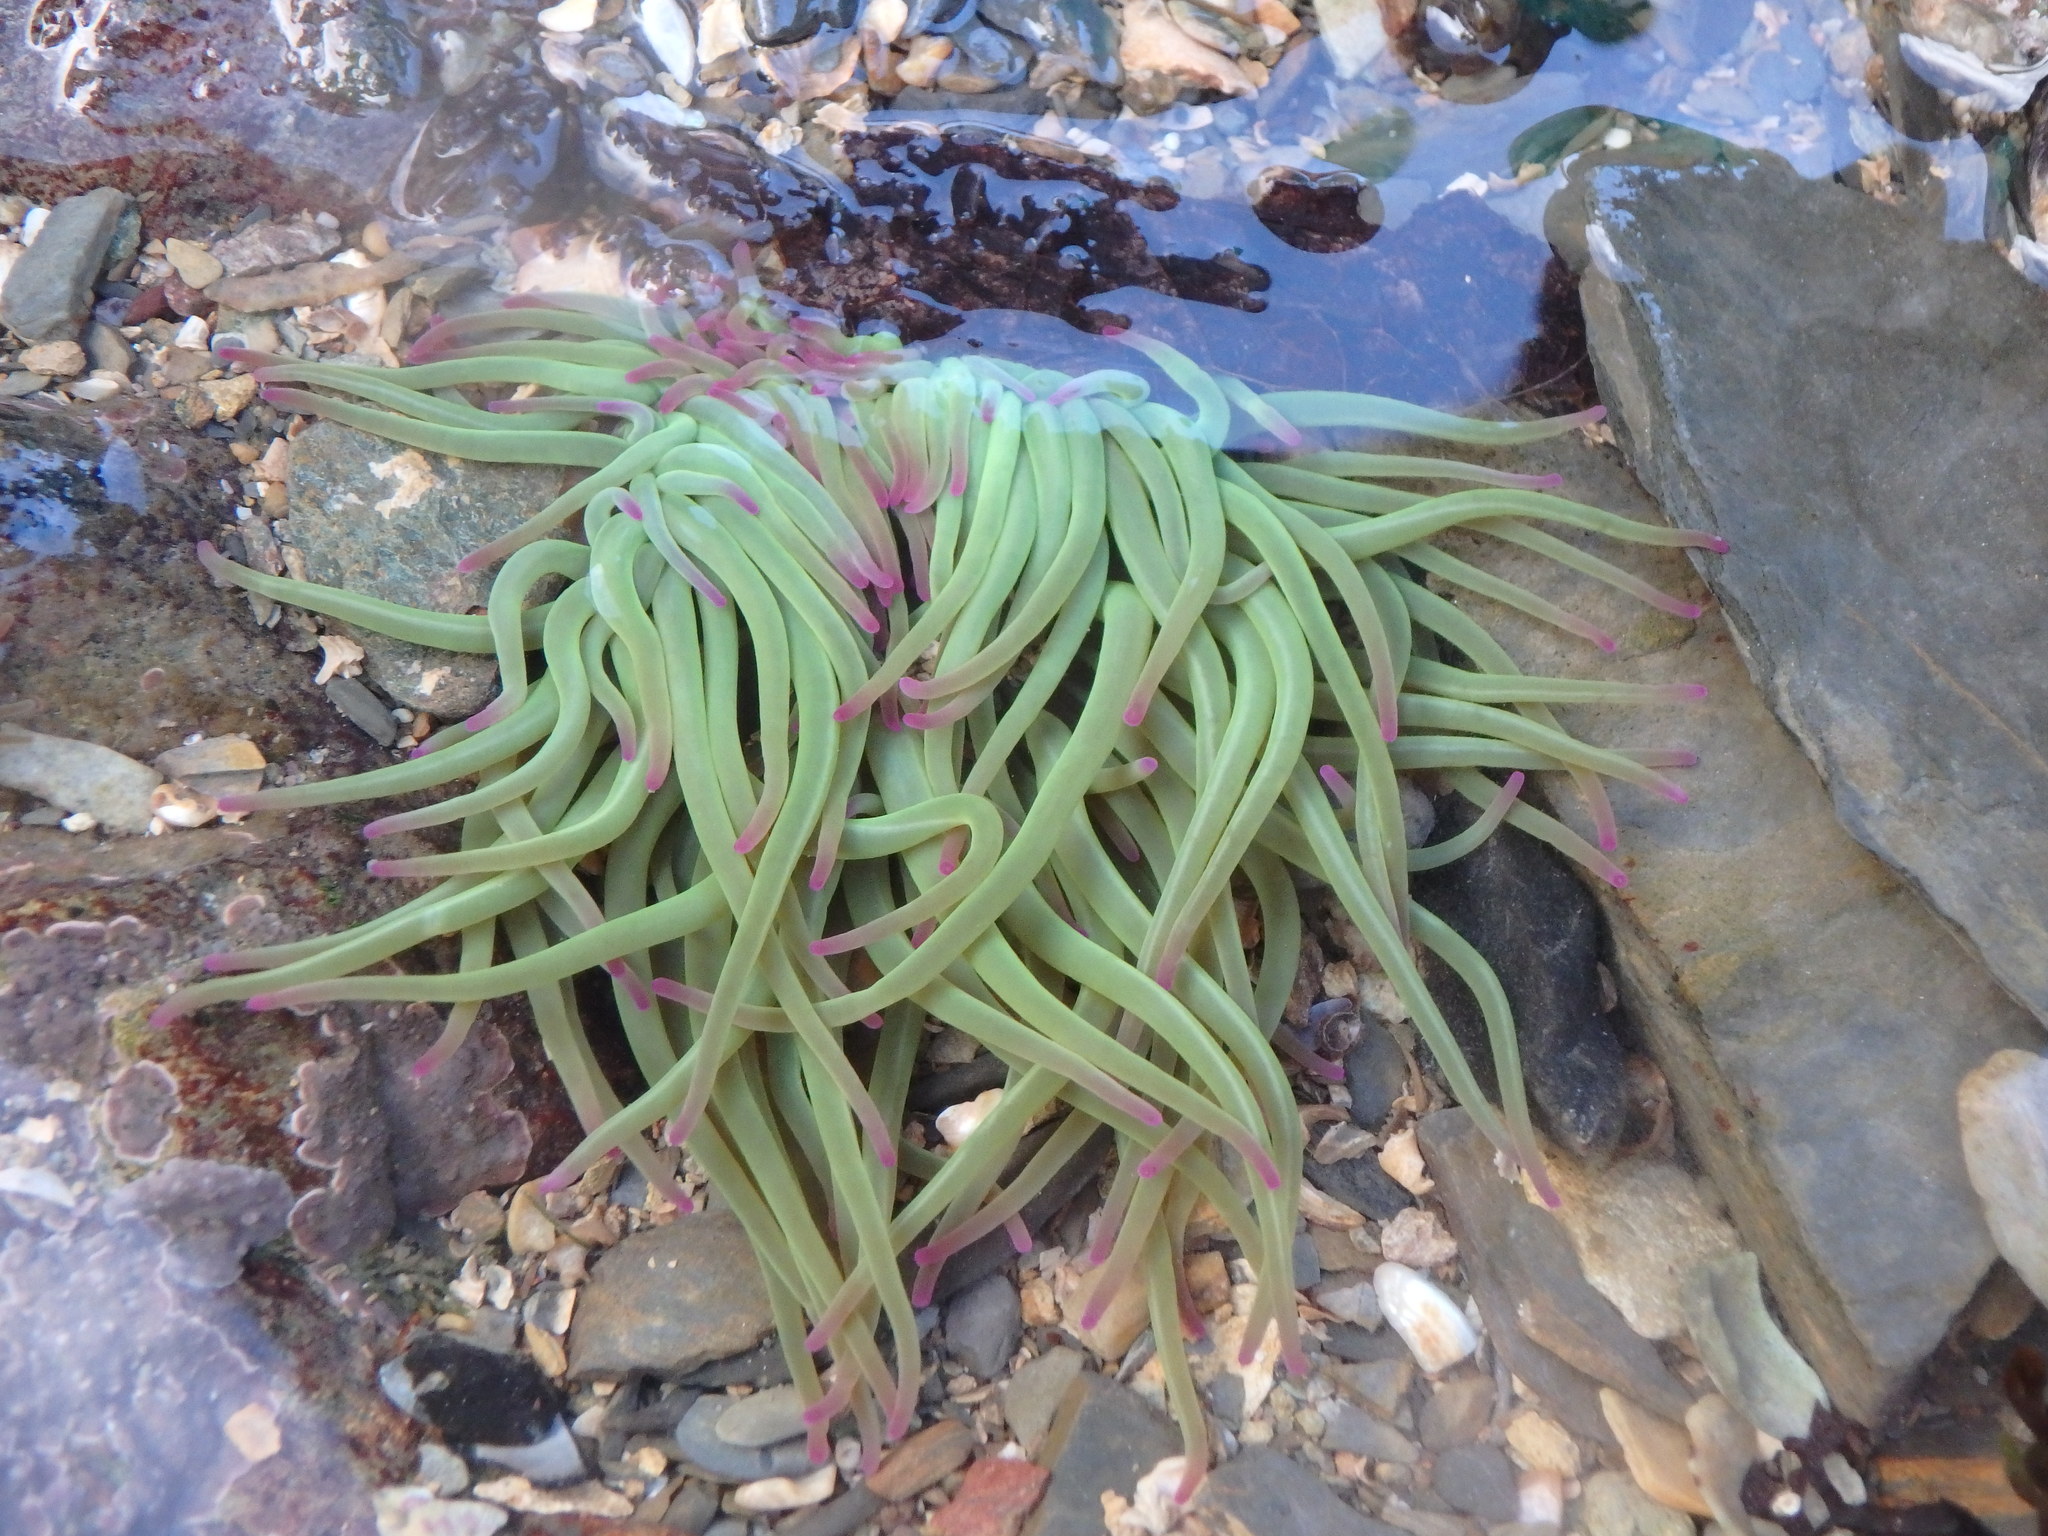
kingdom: Animalia
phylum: Cnidaria
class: Anthozoa
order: Actiniaria
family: Actiniidae
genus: Anemonia
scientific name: Anemonia viridis
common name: Snakelocks anemone
